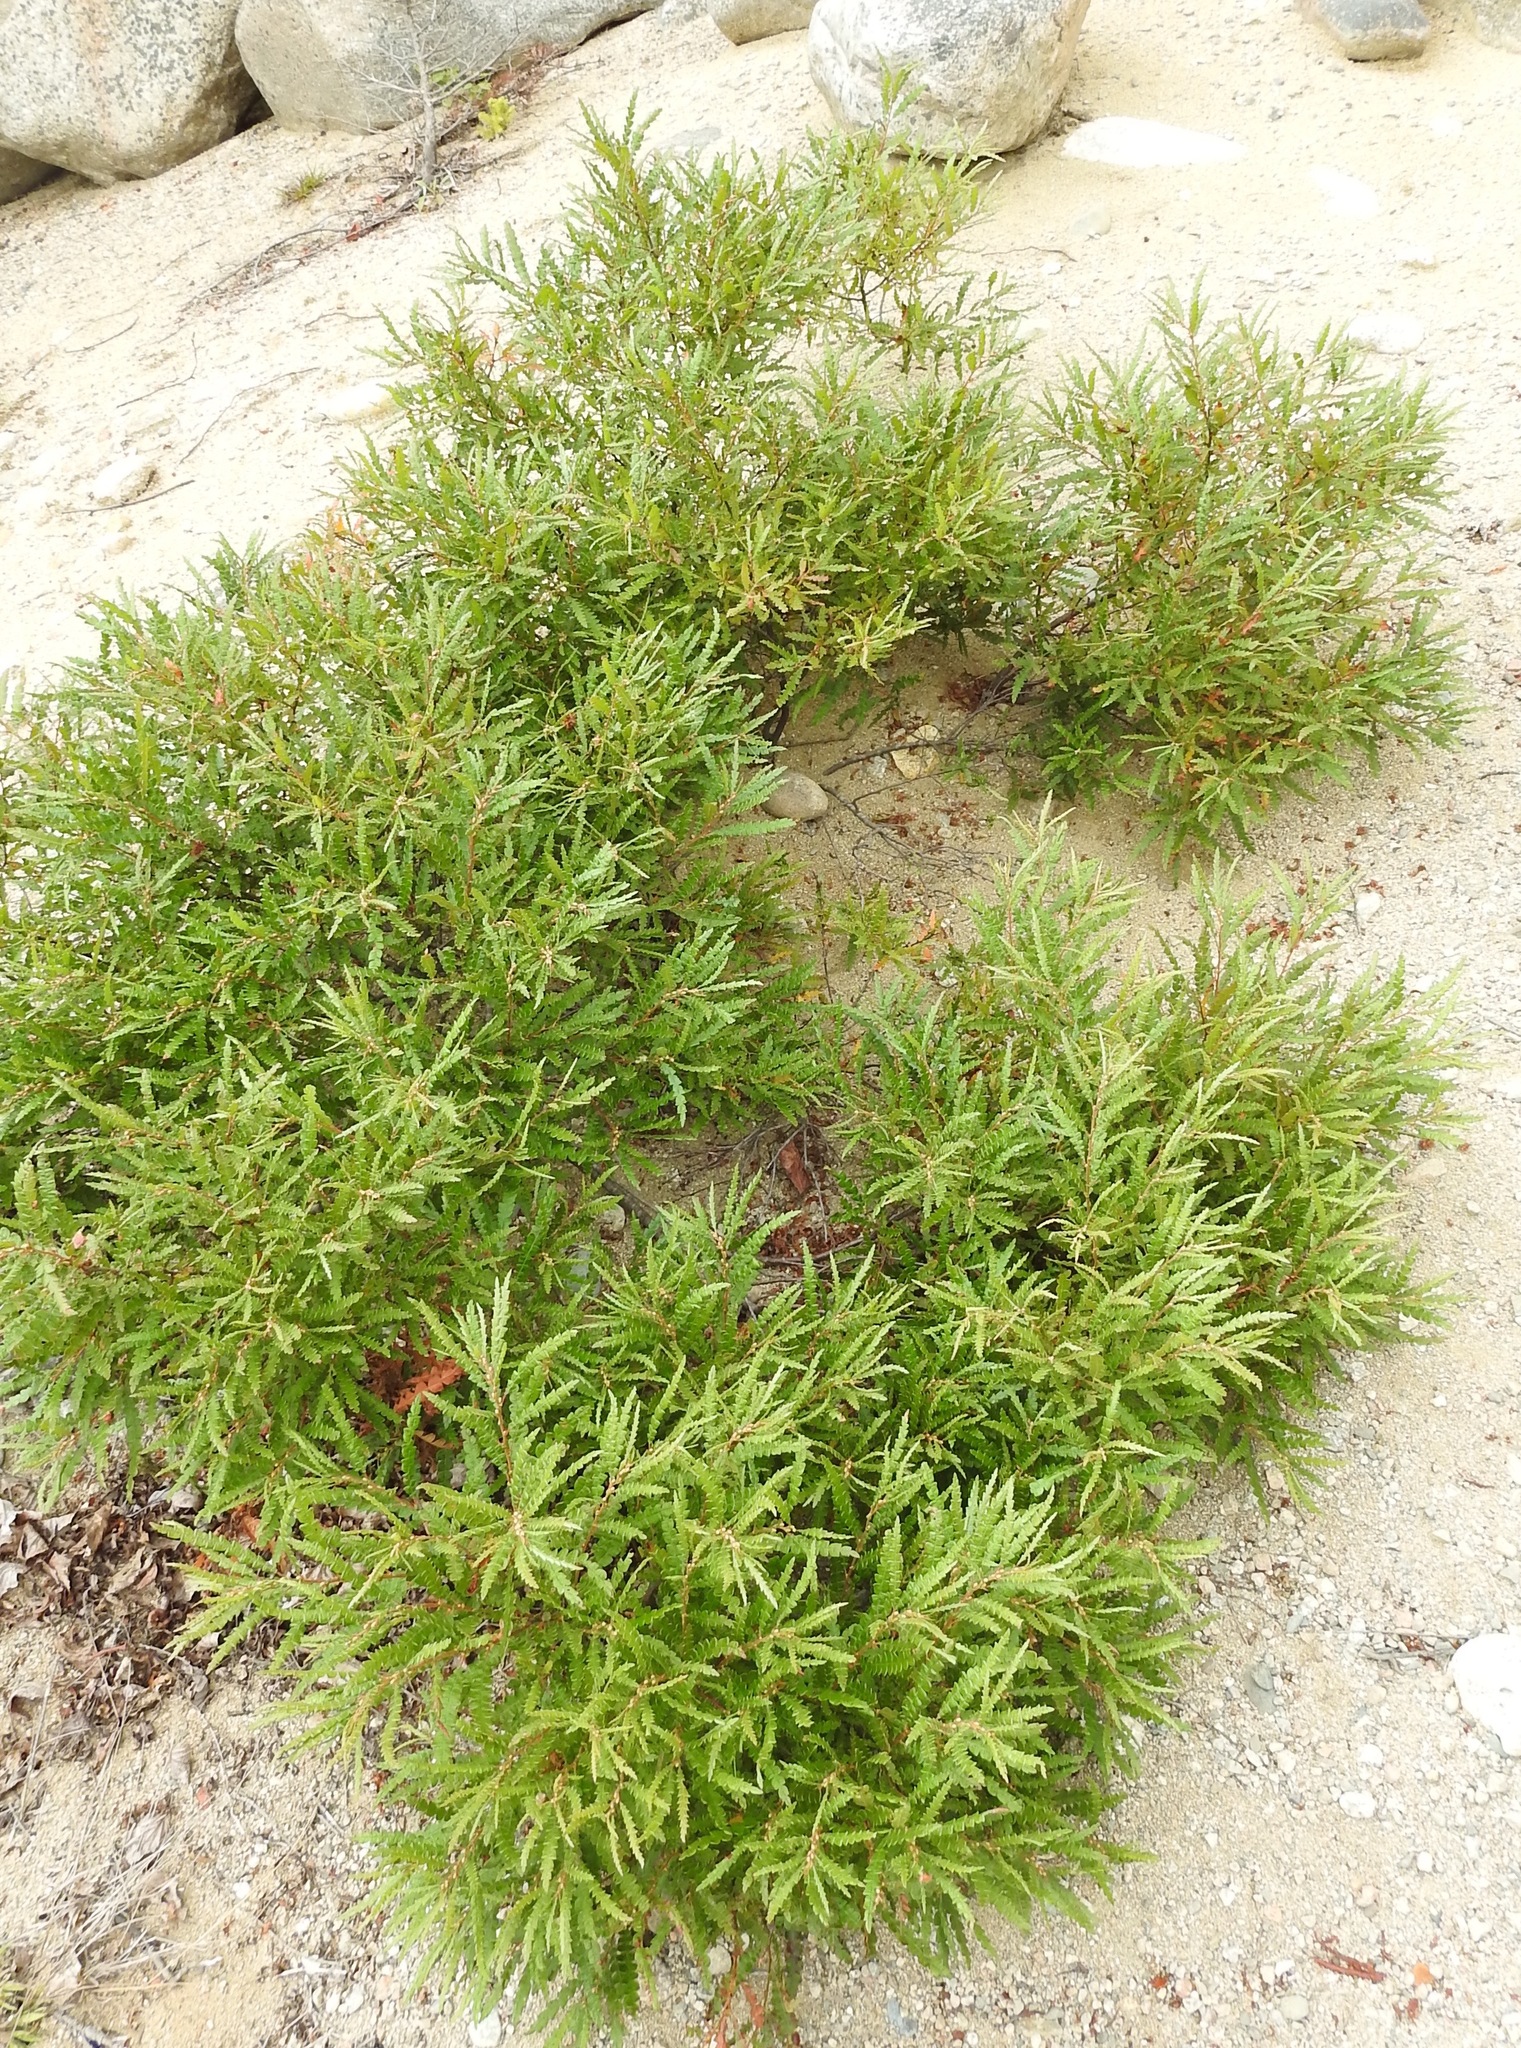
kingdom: Plantae
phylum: Tracheophyta
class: Magnoliopsida
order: Fagales
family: Myricaceae
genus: Comptonia
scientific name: Comptonia peregrina
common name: Sweet-fern
